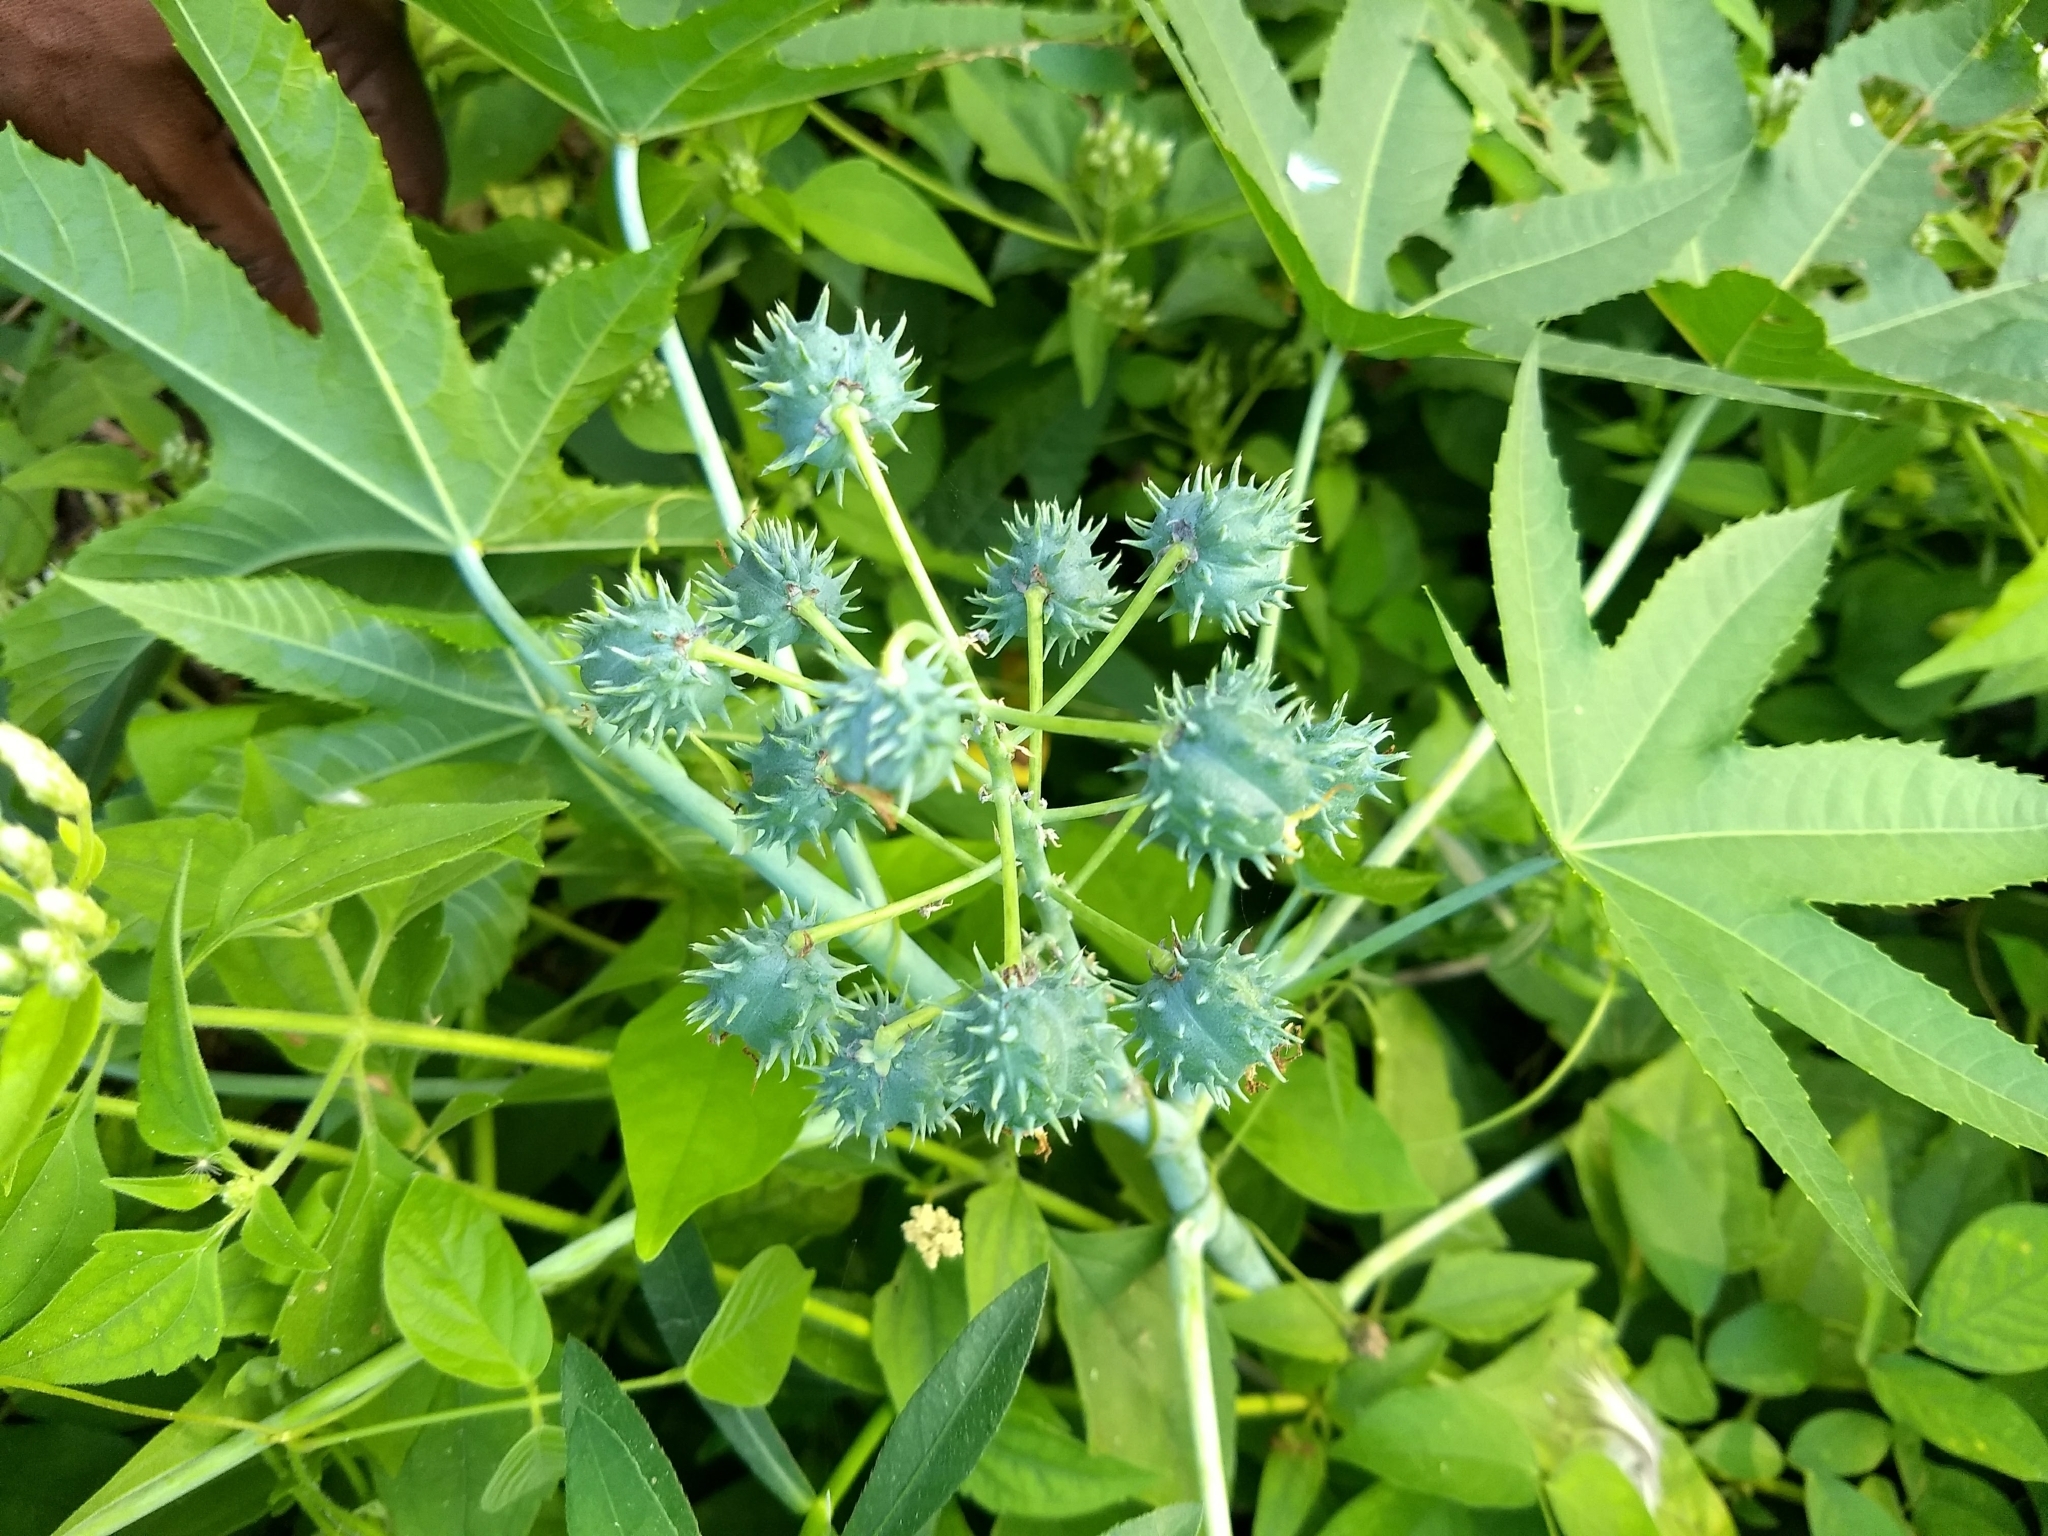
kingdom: Plantae
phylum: Tracheophyta
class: Magnoliopsida
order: Malpighiales
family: Euphorbiaceae
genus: Ricinus
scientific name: Ricinus communis
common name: Castor-oil-plant
